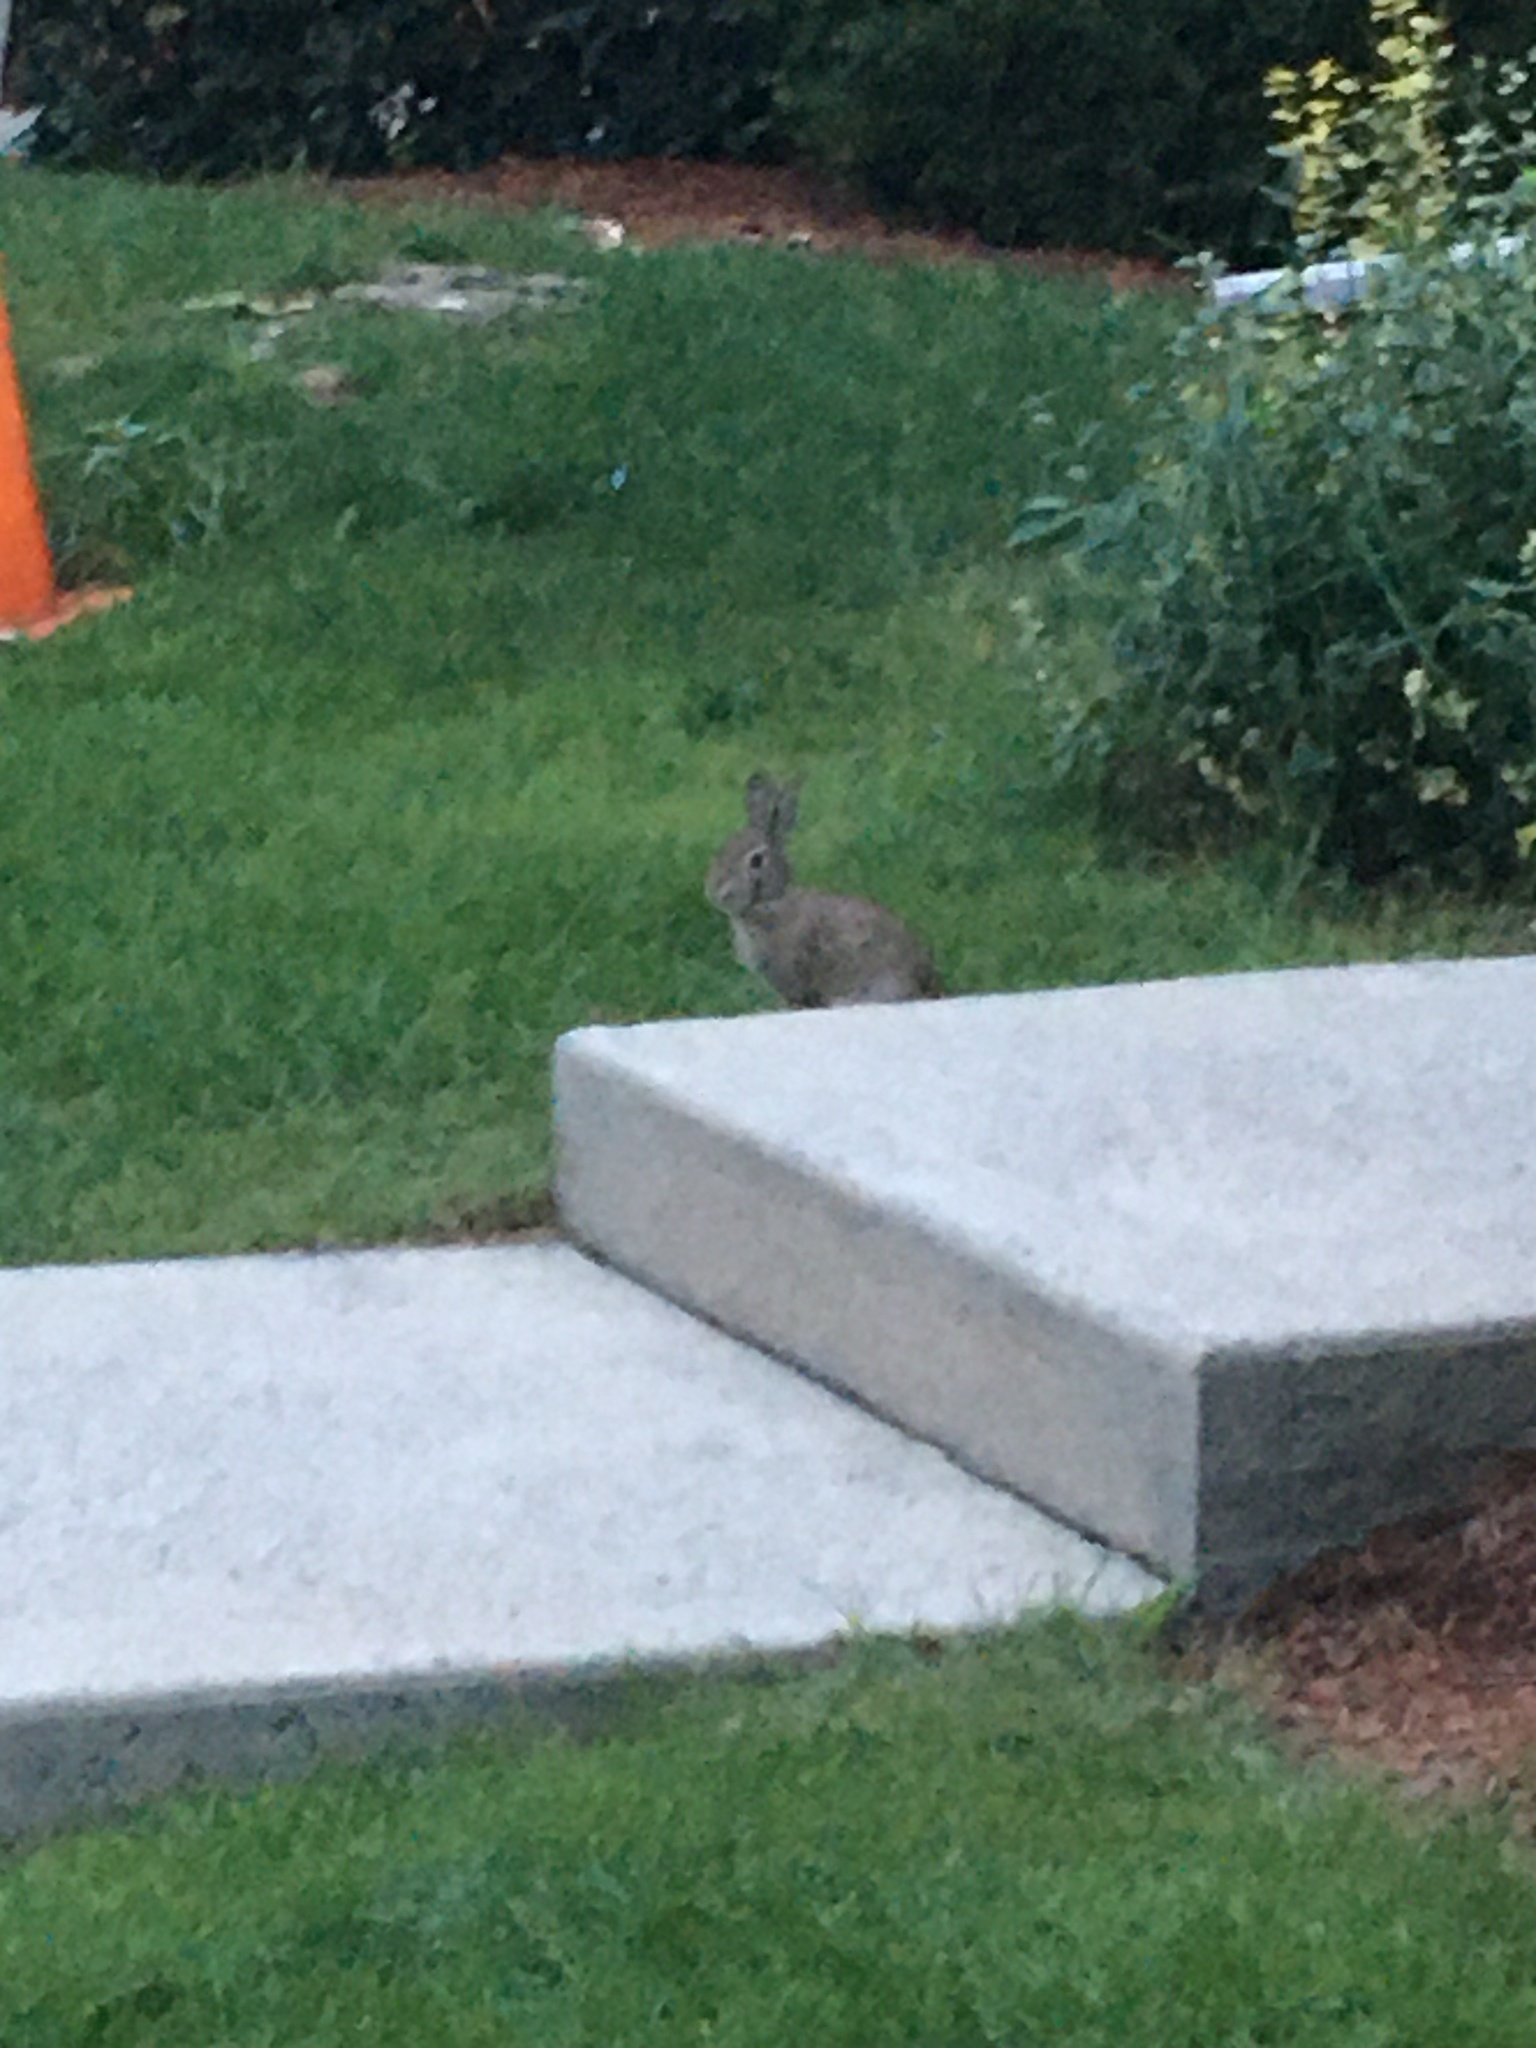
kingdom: Animalia
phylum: Chordata
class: Mammalia
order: Lagomorpha
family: Leporidae
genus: Sylvilagus
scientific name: Sylvilagus floridanus
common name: Eastern cottontail
